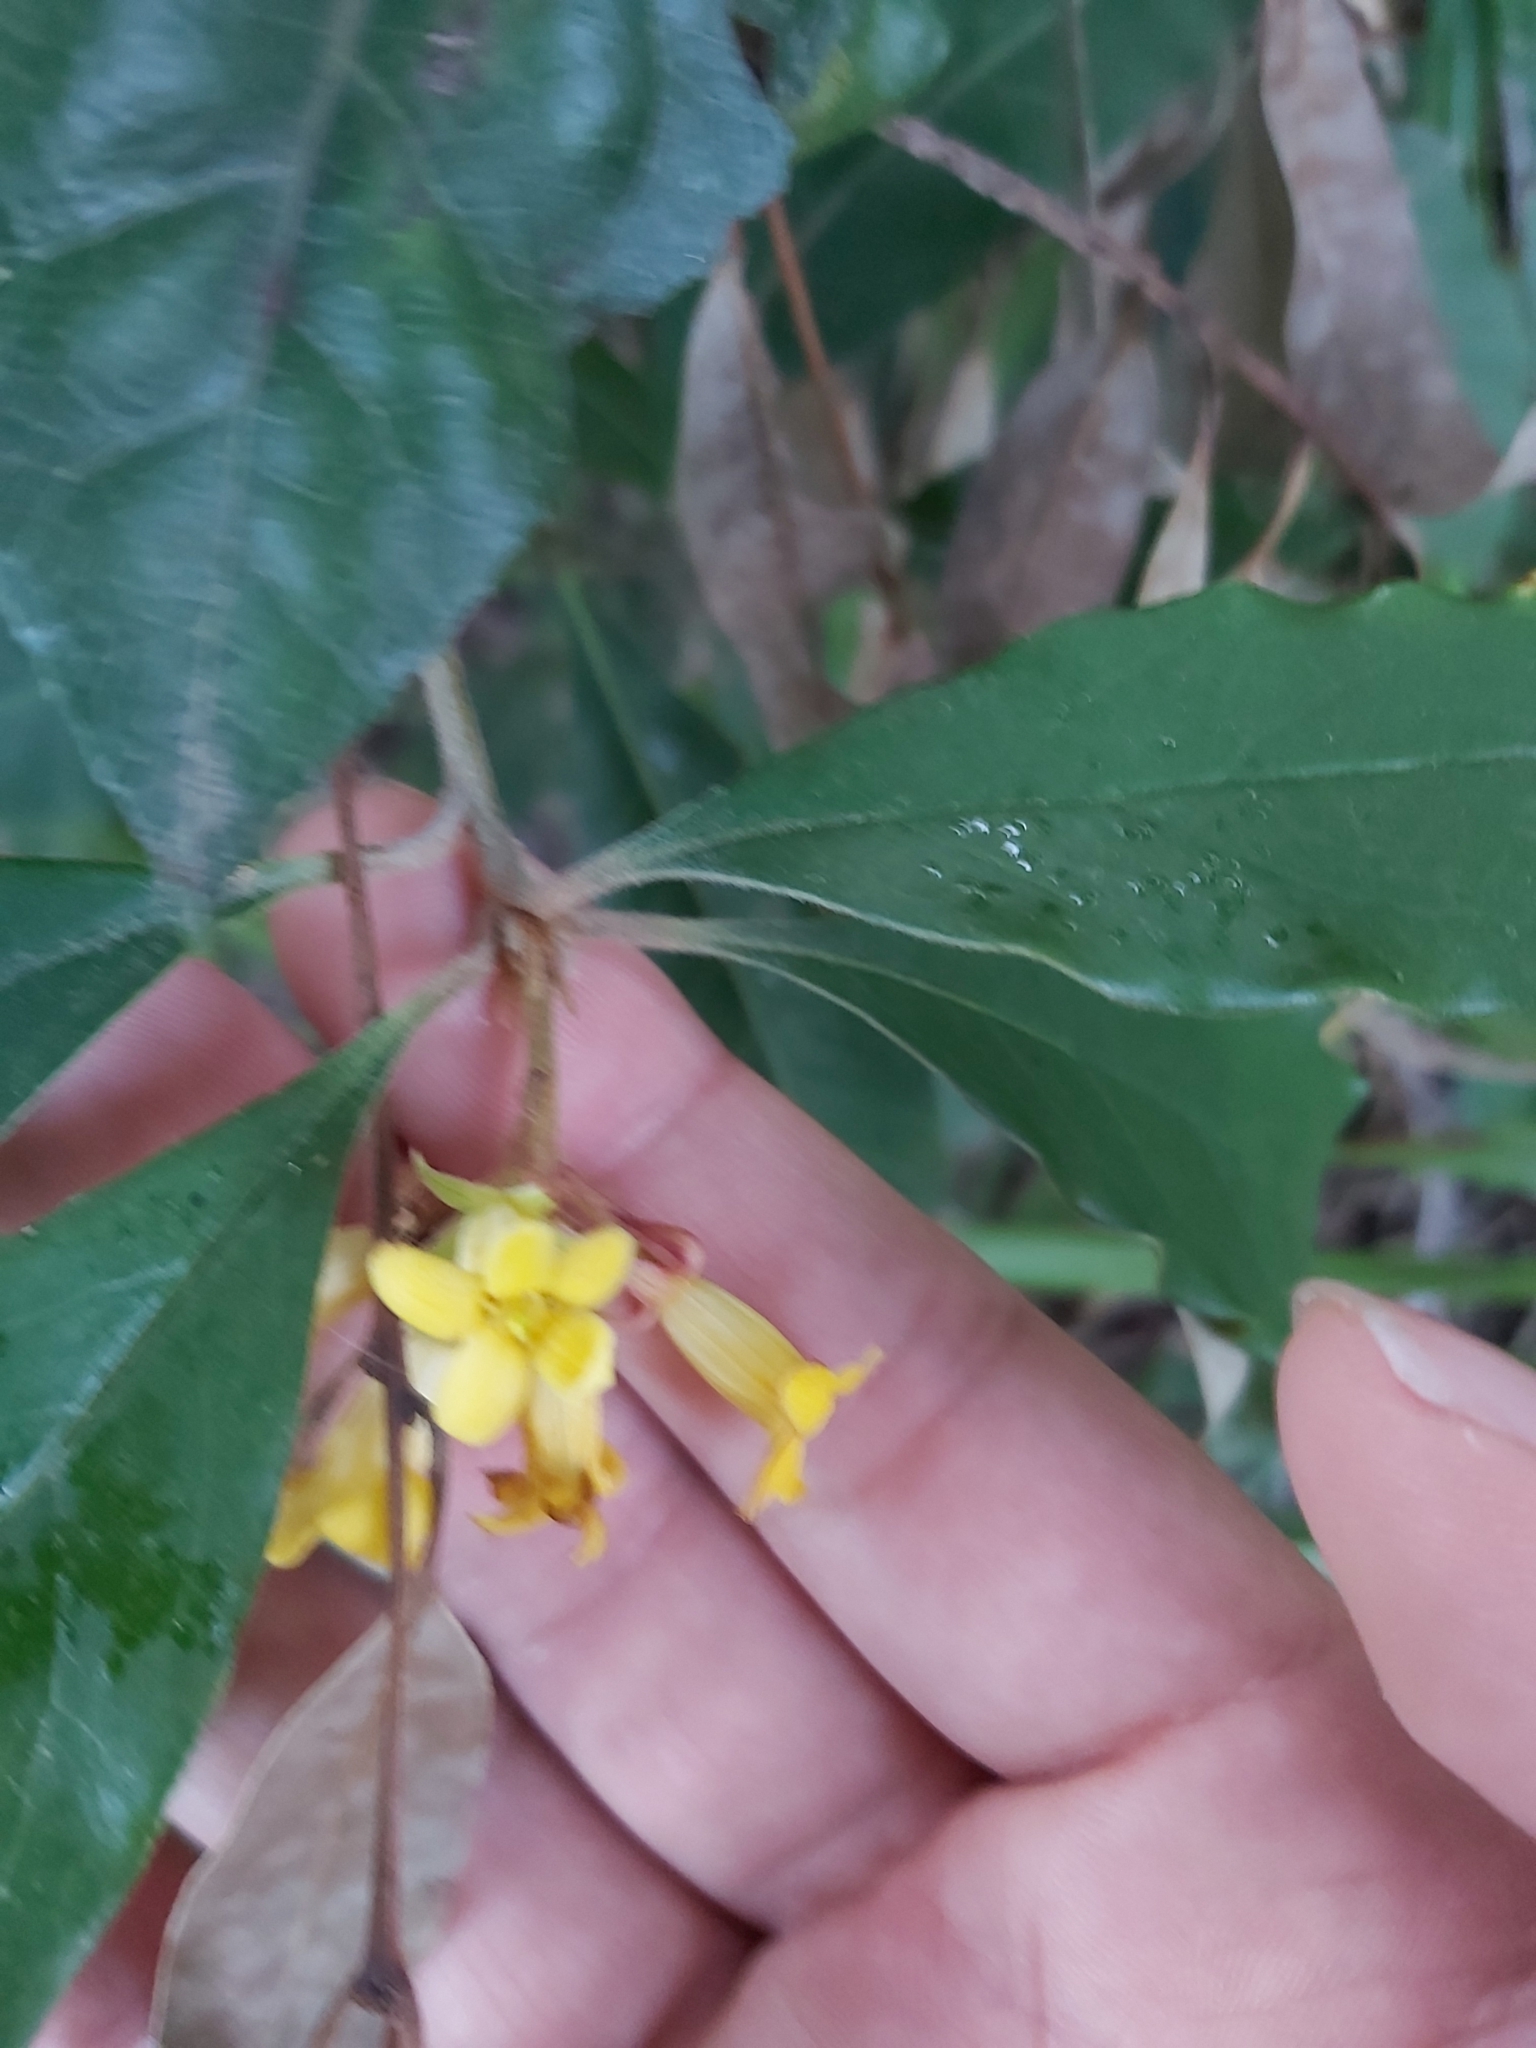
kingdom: Plantae
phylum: Tracheophyta
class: Magnoliopsida
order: Apiales
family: Pittosporaceae
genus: Pittosporum
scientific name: Pittosporum revolutum
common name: Brisbane-laurel
